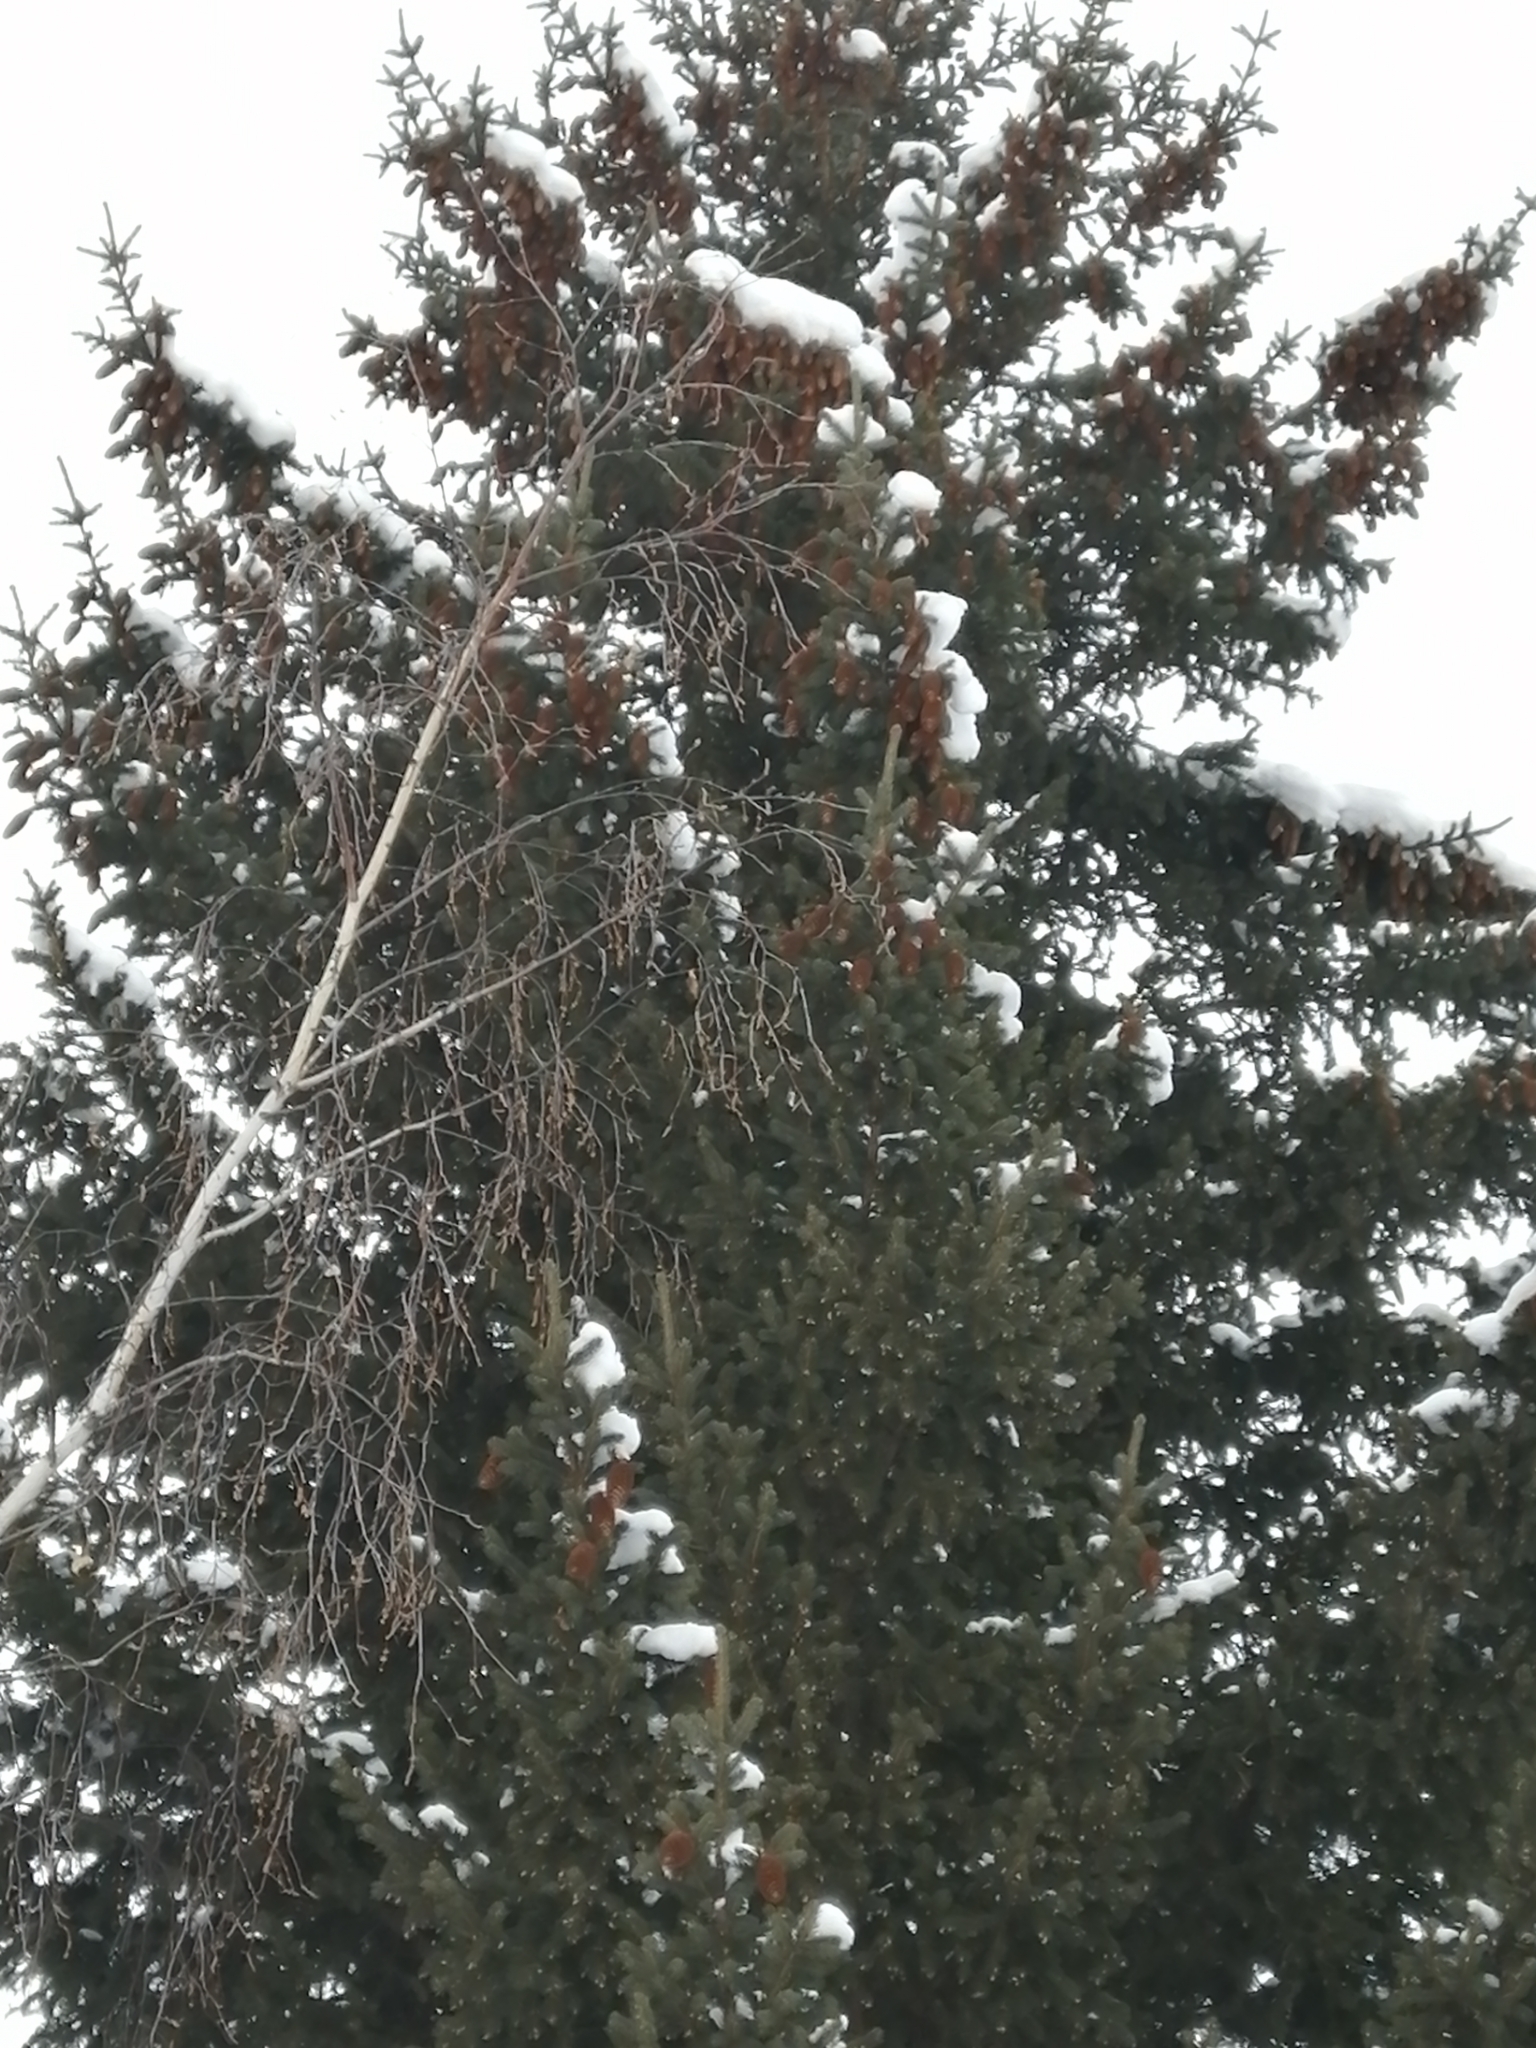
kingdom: Plantae
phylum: Tracheophyta
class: Pinopsida
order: Pinales
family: Pinaceae
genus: Picea
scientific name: Picea obovata
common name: Siberian spruce
